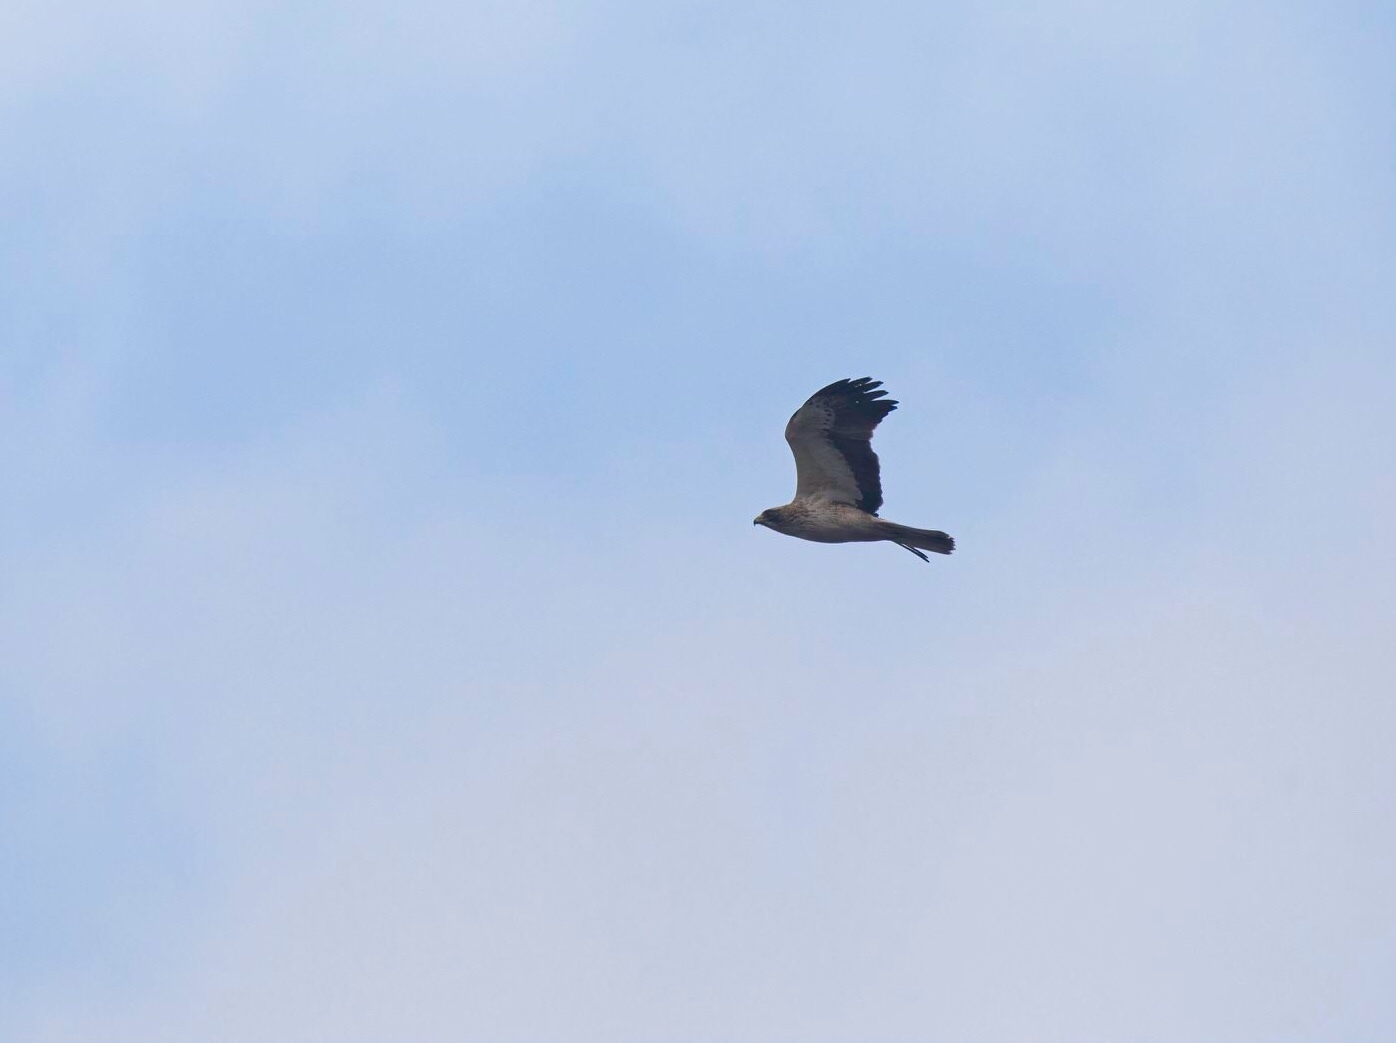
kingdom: Animalia
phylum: Chordata
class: Aves
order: Accipitriformes
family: Accipitridae
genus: Hieraaetus
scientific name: Hieraaetus pennatus
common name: Booted eagle
